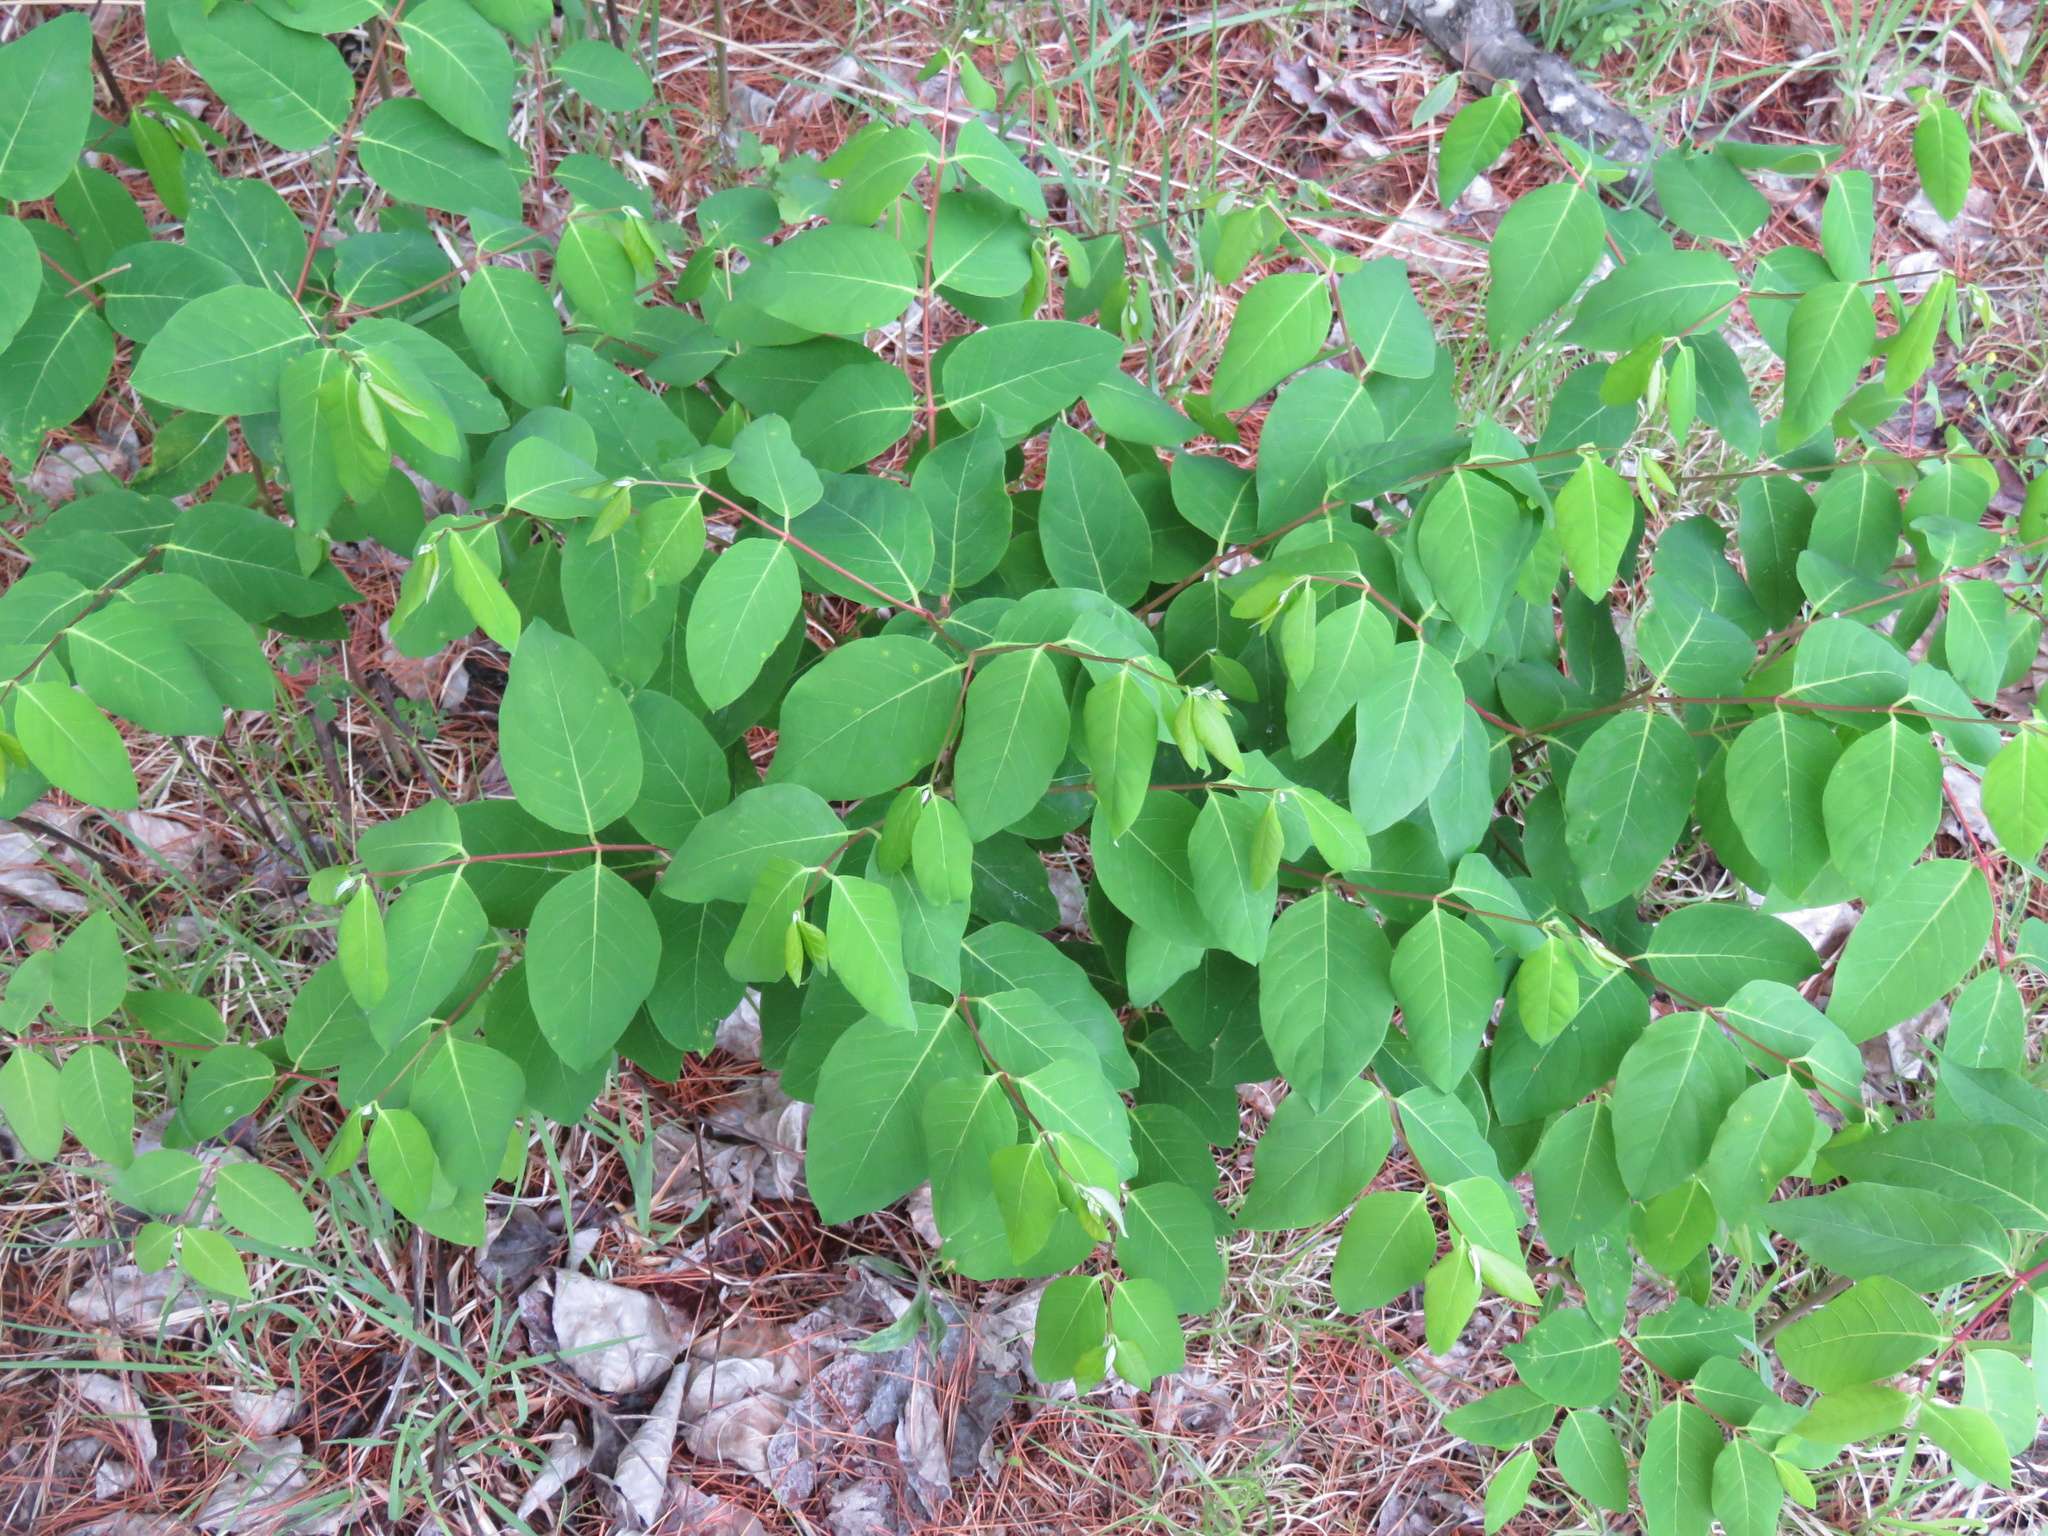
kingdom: Plantae
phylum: Tracheophyta
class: Magnoliopsida
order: Gentianales
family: Apocynaceae
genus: Apocynum
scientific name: Apocynum androsaemifolium
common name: Spreading dogbane
